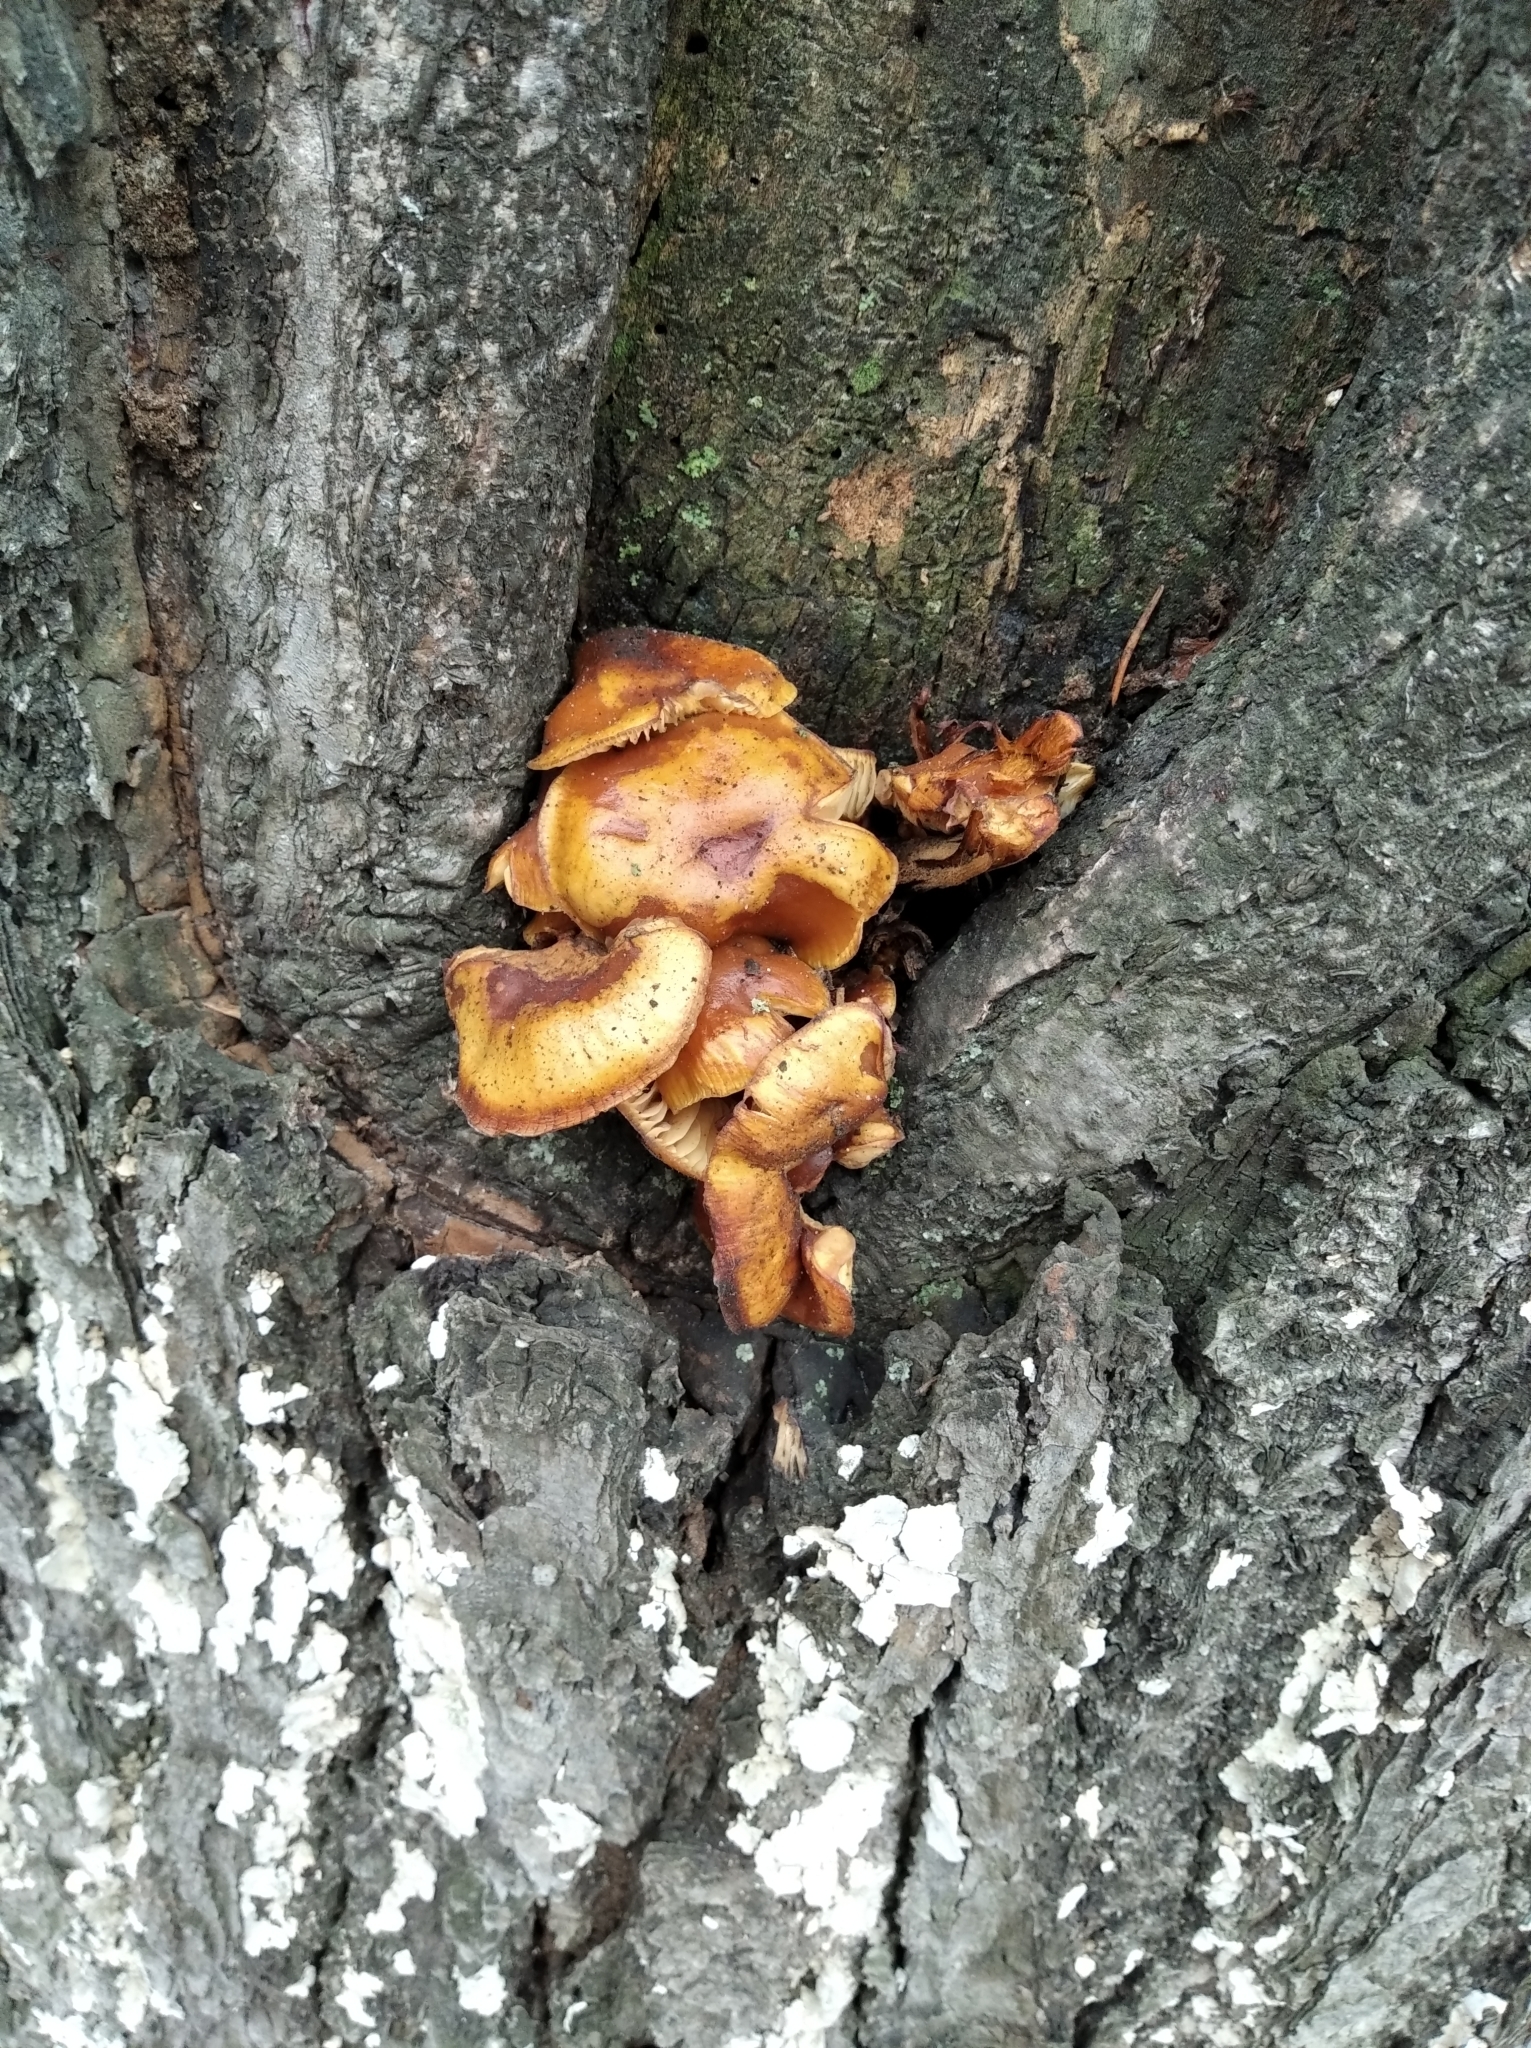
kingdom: Fungi
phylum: Basidiomycota
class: Agaricomycetes
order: Agaricales
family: Physalacriaceae
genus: Flammulina
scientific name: Flammulina
